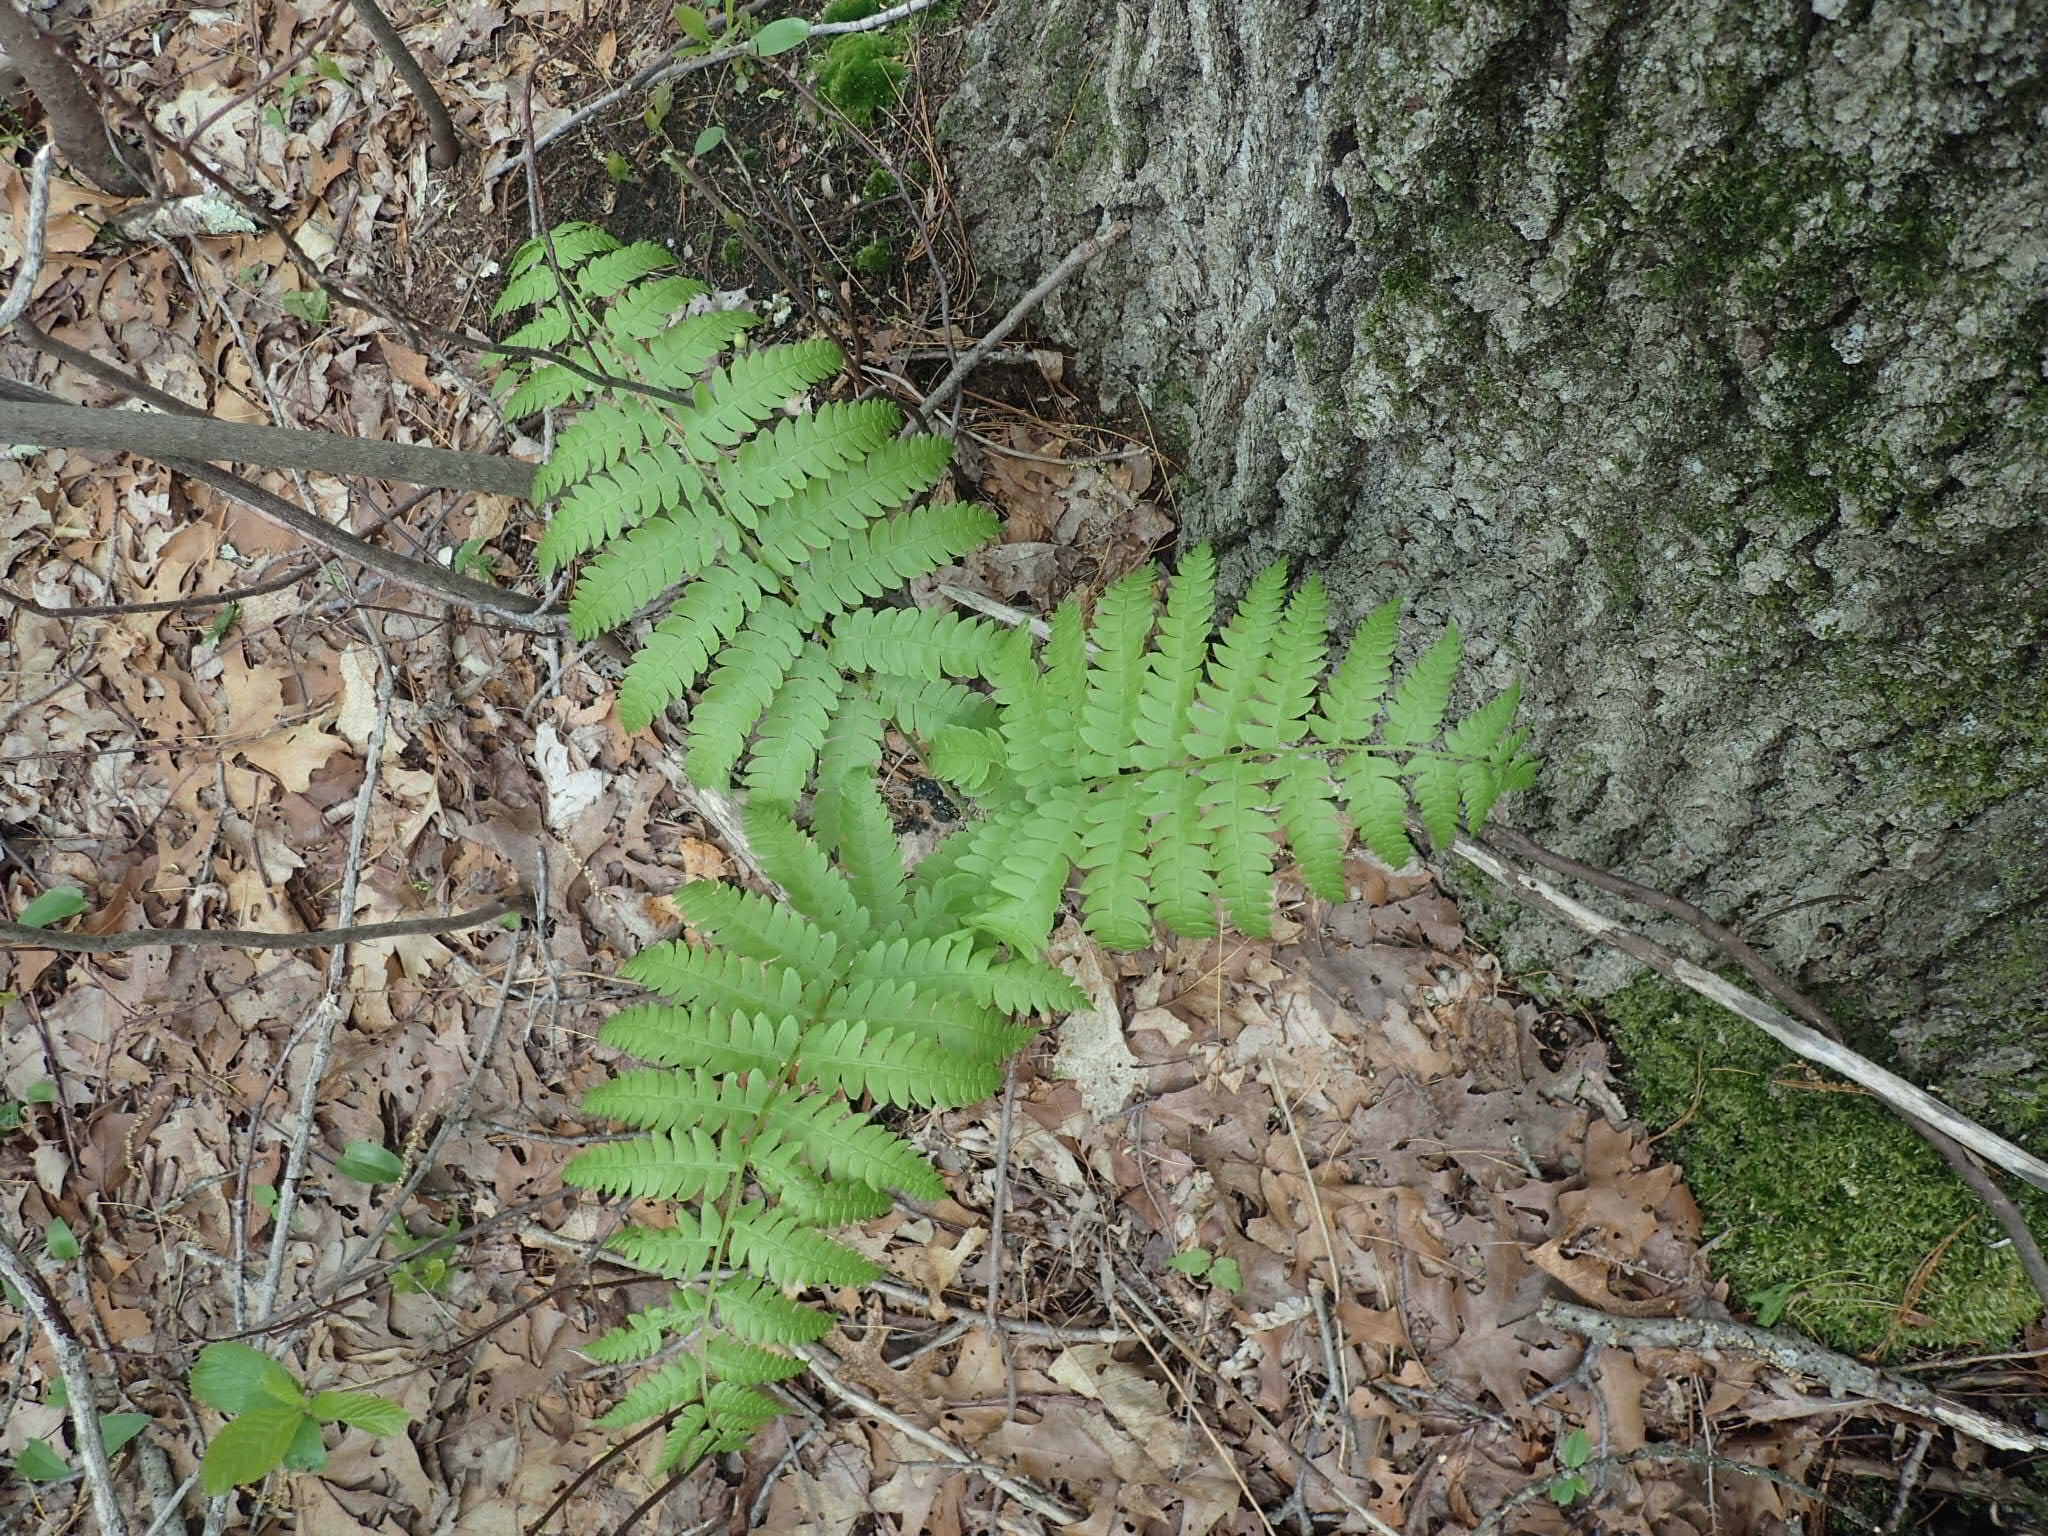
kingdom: Plantae
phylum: Tracheophyta
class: Polypodiopsida
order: Polypodiales
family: Dennstaedtiaceae
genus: Pteridium
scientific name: Pteridium aquilinum
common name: Bracken
